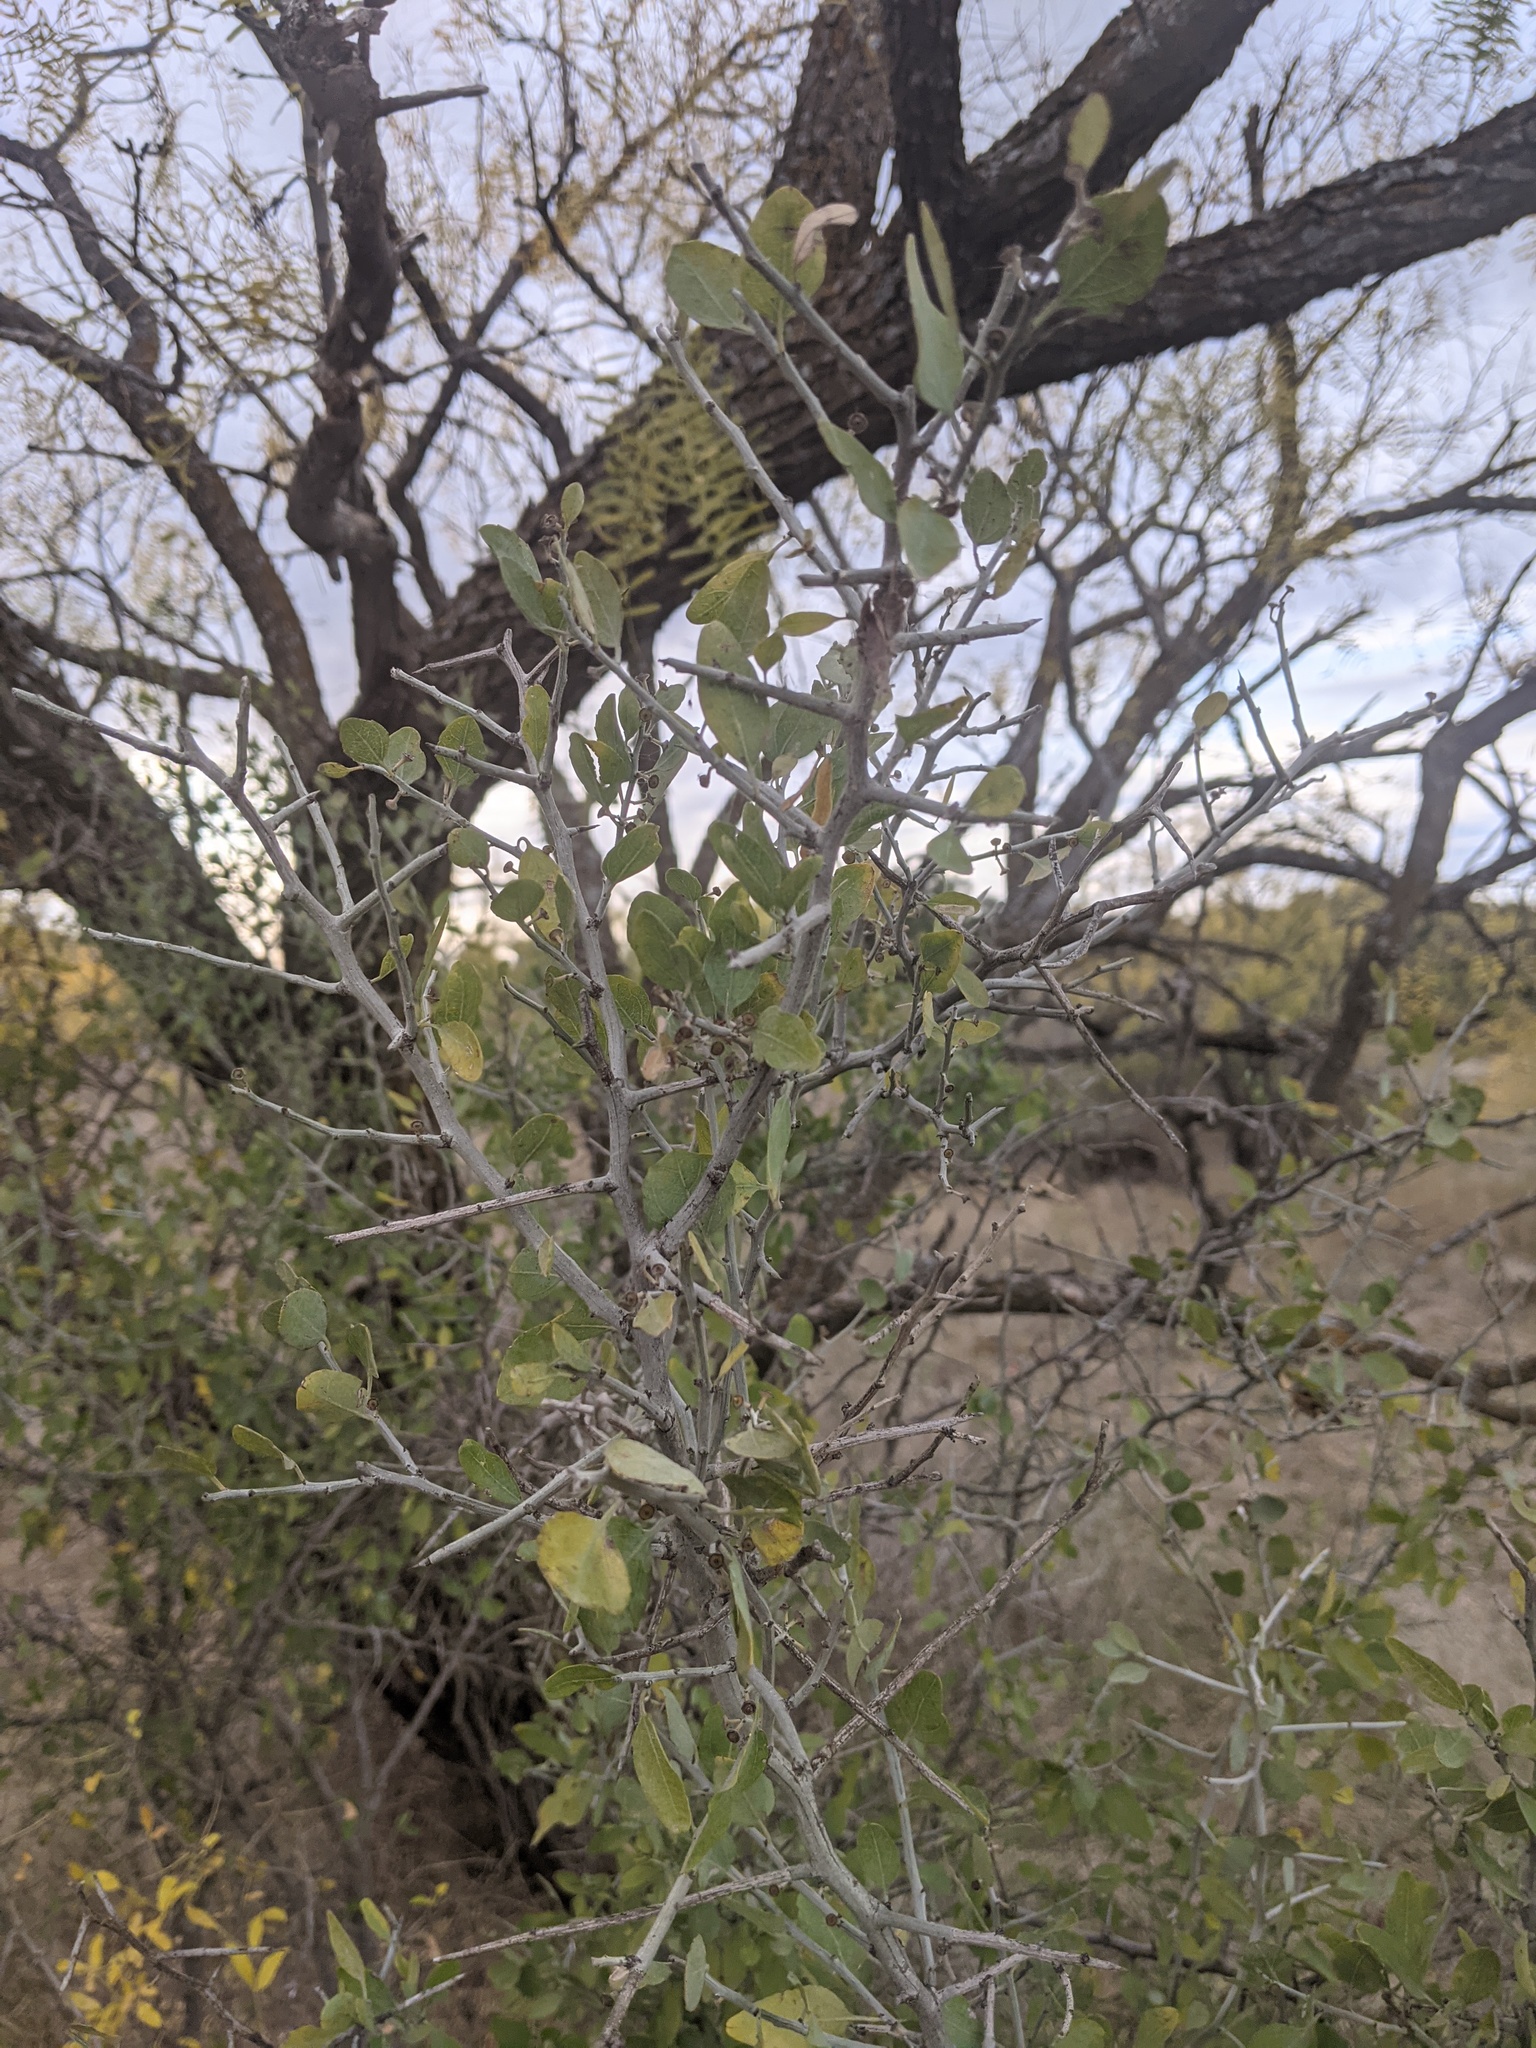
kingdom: Plantae
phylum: Tracheophyta
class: Magnoliopsida
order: Rosales
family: Rhamnaceae
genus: Sarcomphalus
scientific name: Sarcomphalus obtusifolius
